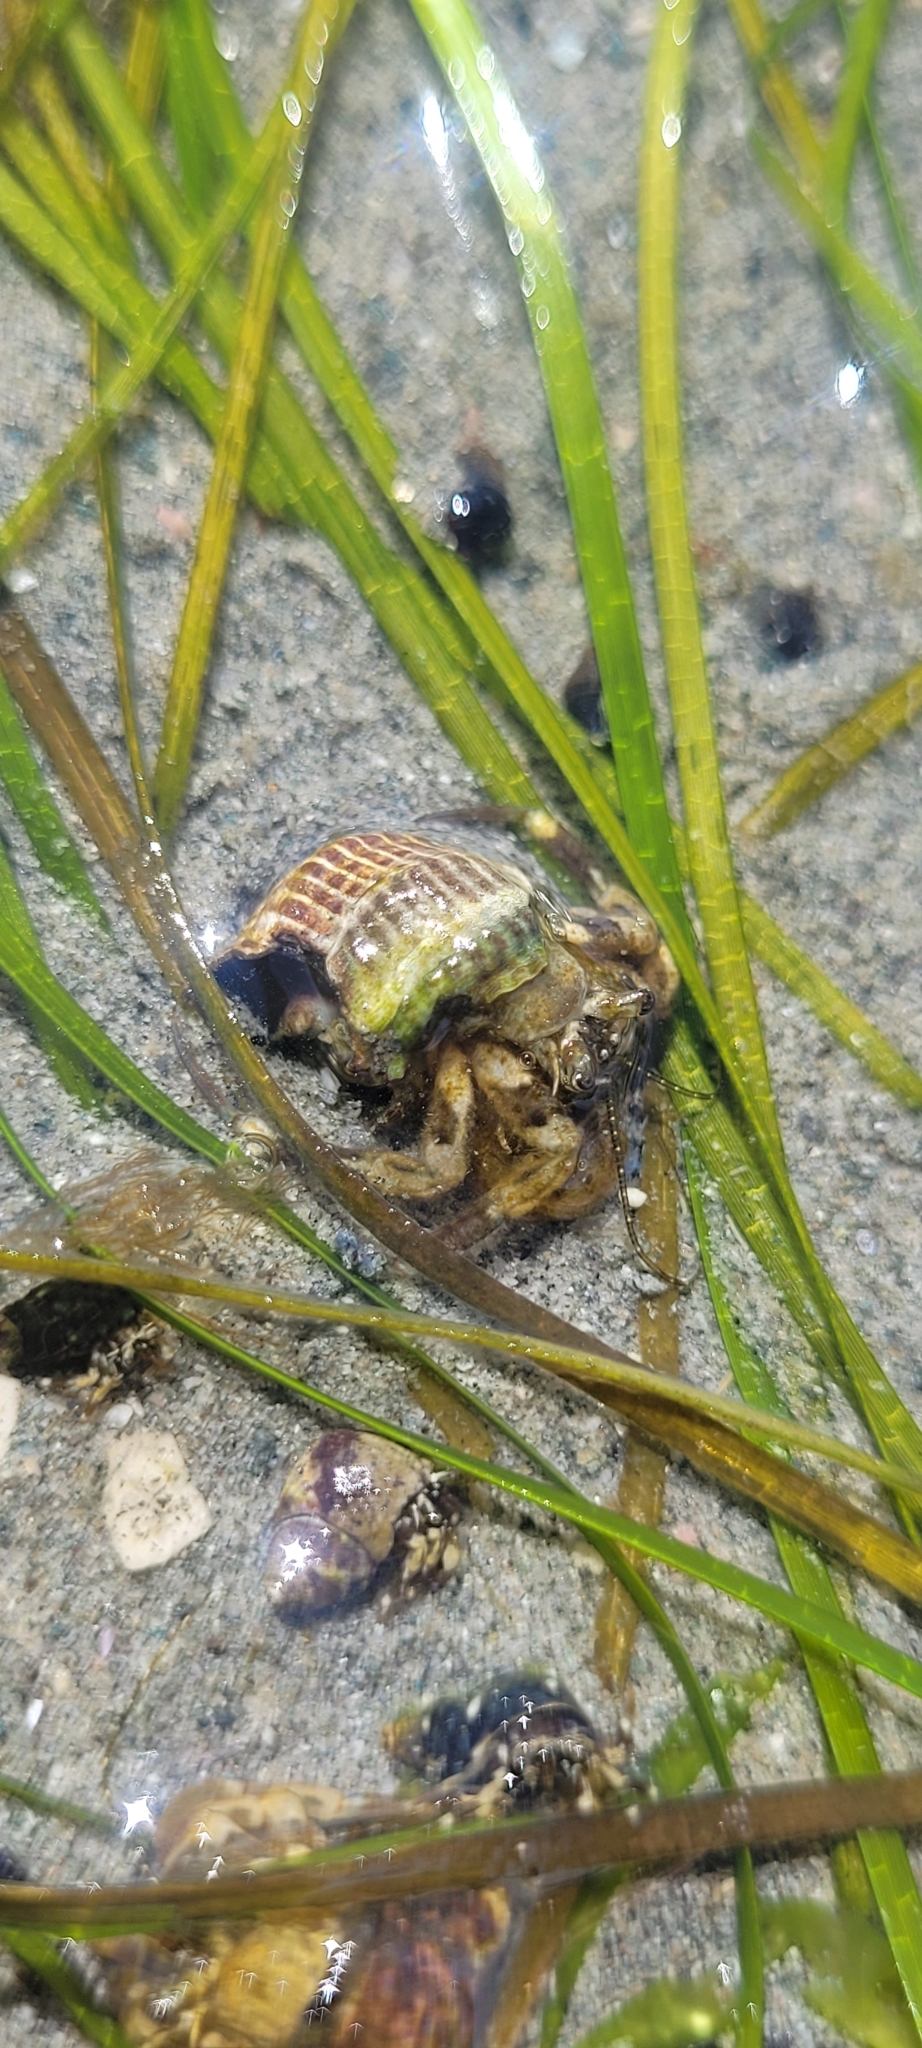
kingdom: Animalia
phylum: Arthropoda
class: Malacostraca
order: Decapoda
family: Paguridae
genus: Pagurus
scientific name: Pagurus hirsutiusculus
